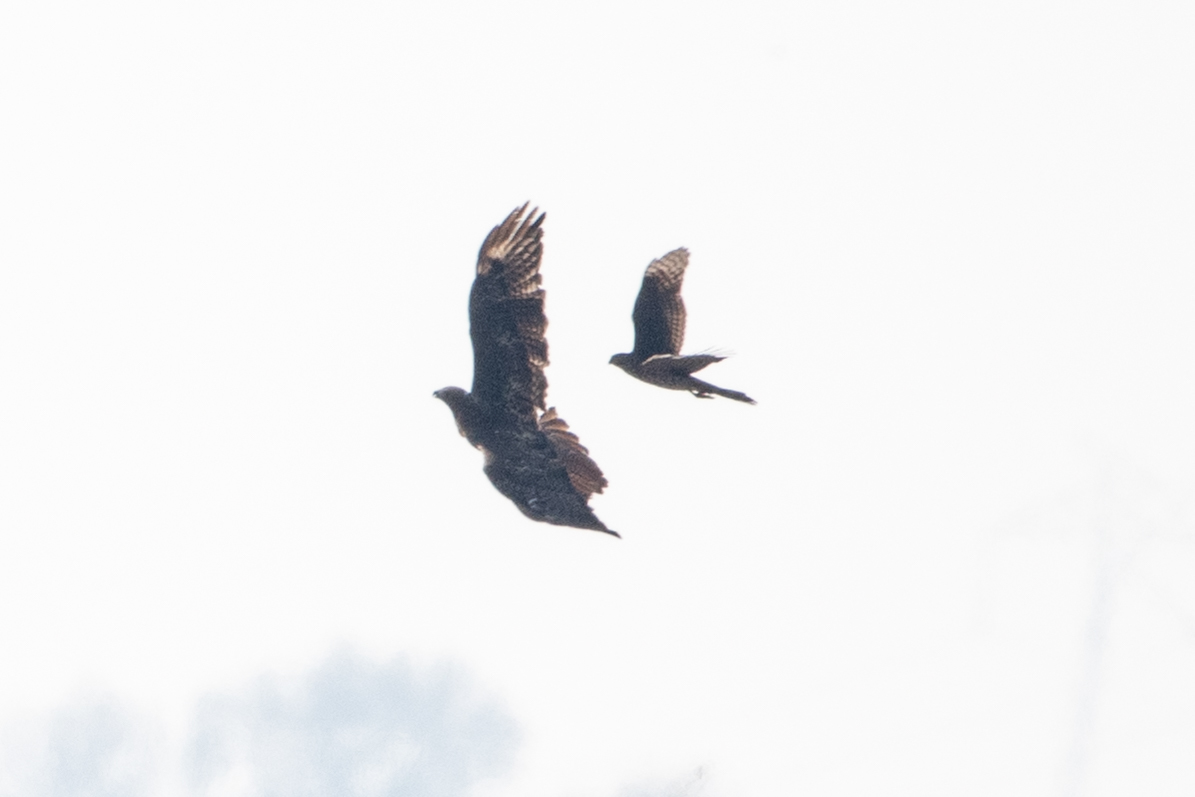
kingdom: Animalia
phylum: Chordata
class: Aves
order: Accipitriformes
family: Accipitridae
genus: Buteo
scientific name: Buteo jamaicensis
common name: Red-tailed hawk
